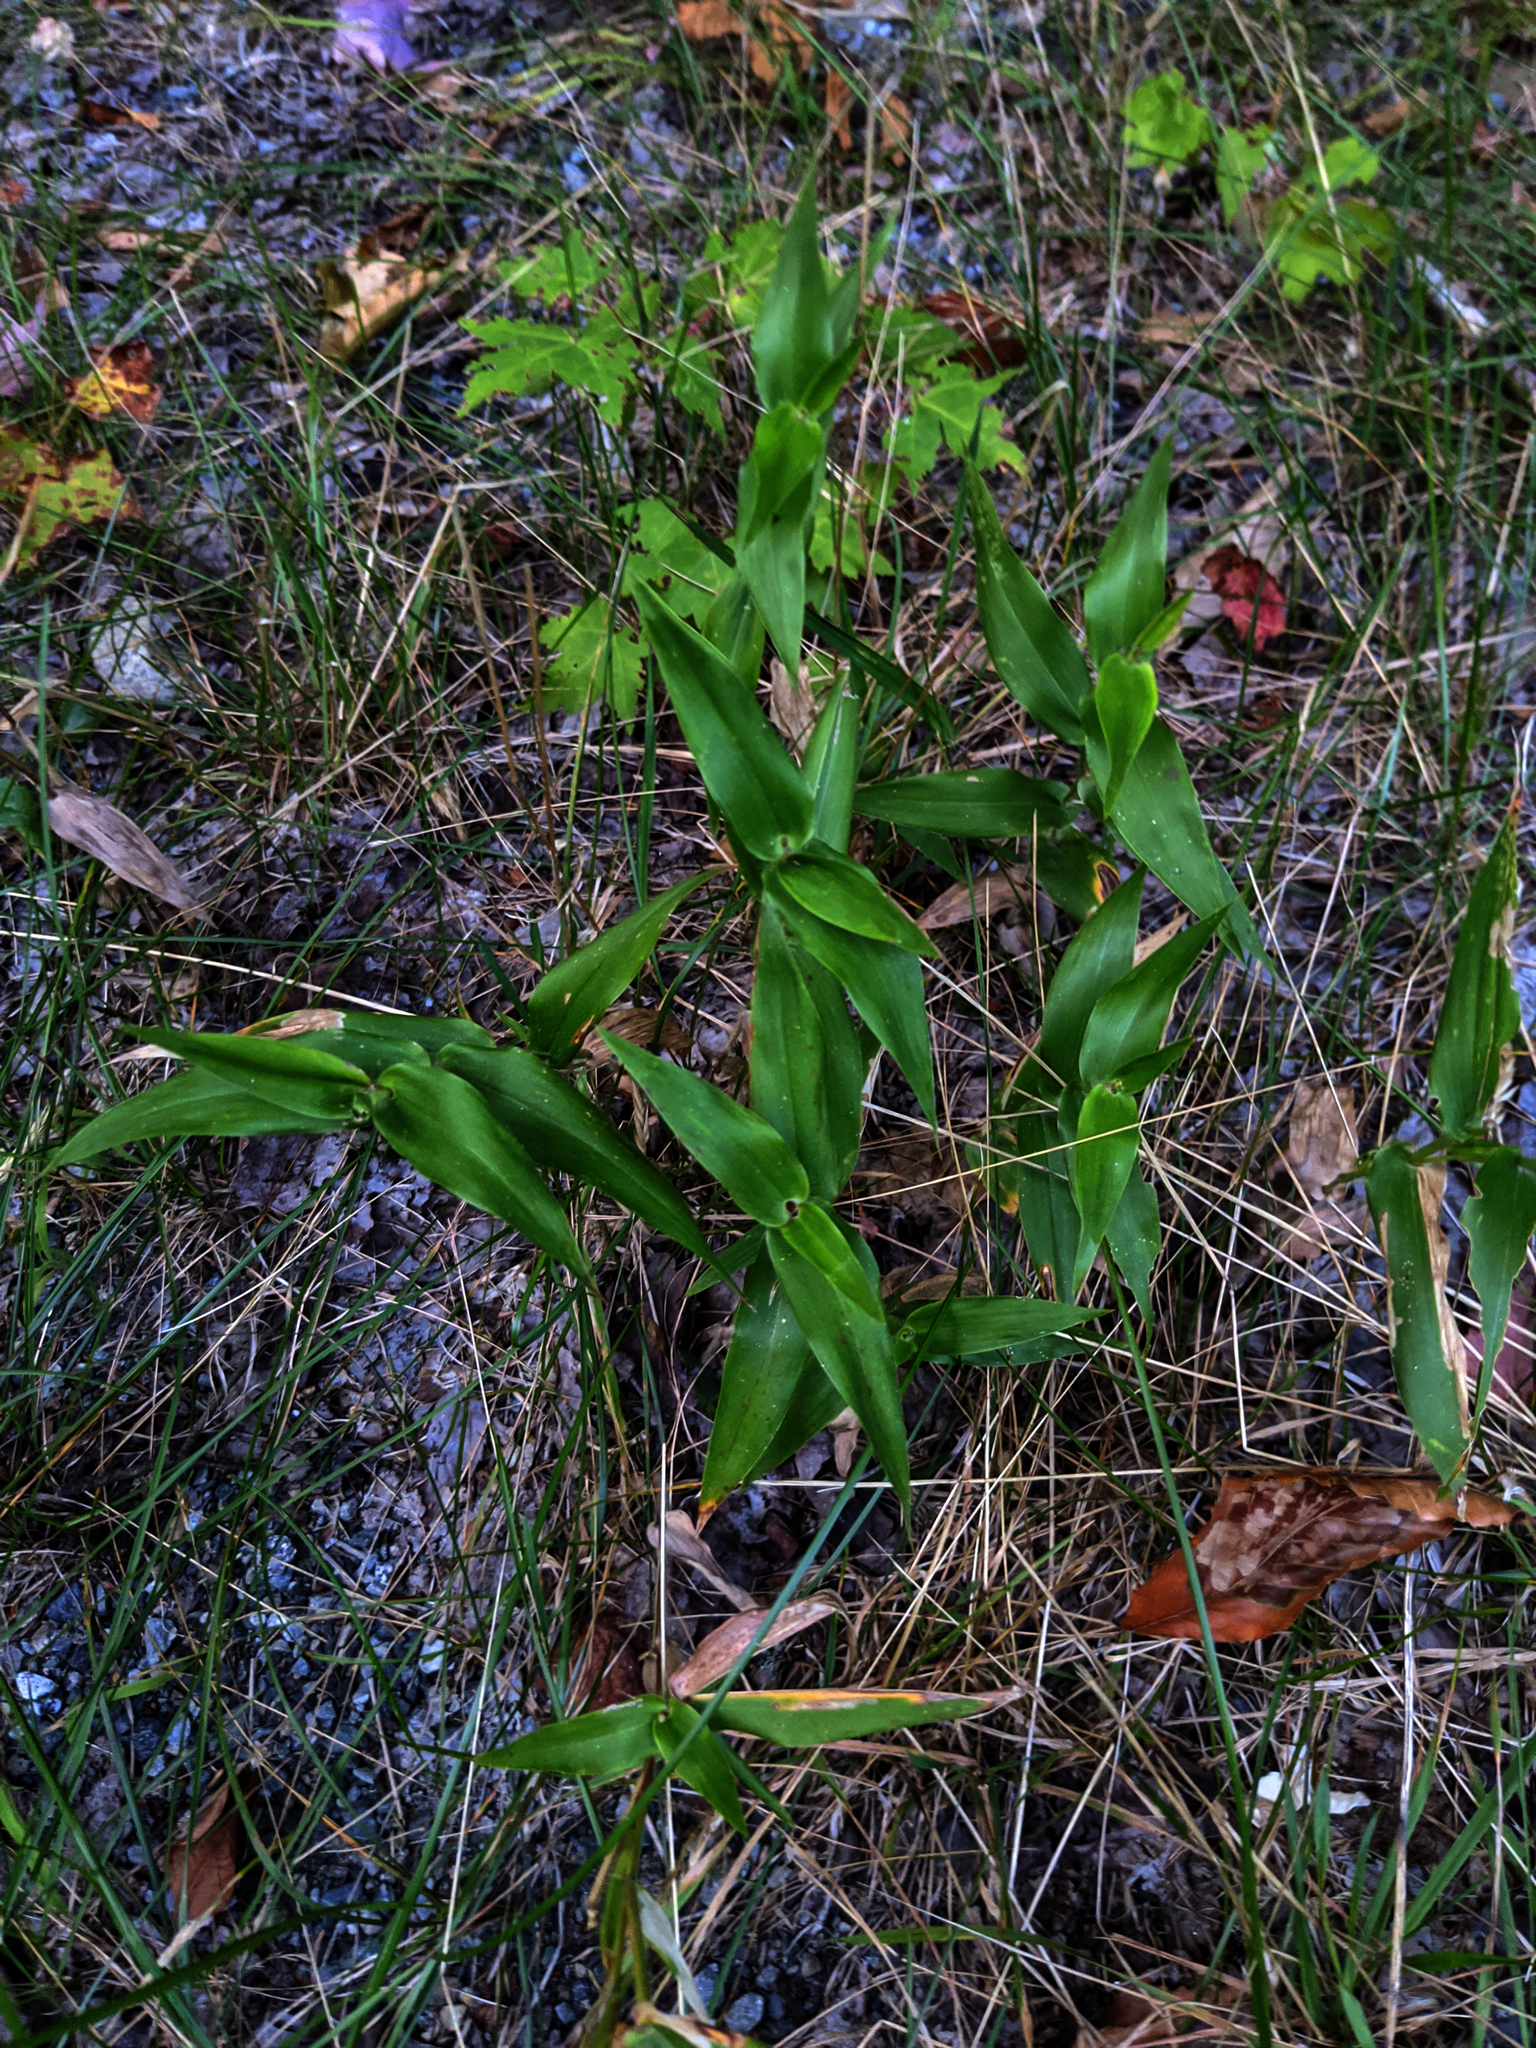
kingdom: Plantae
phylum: Tracheophyta
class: Liliopsida
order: Poales
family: Poaceae
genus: Dichanthelium
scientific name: Dichanthelium clandestinum
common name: Deer-tongue grass
